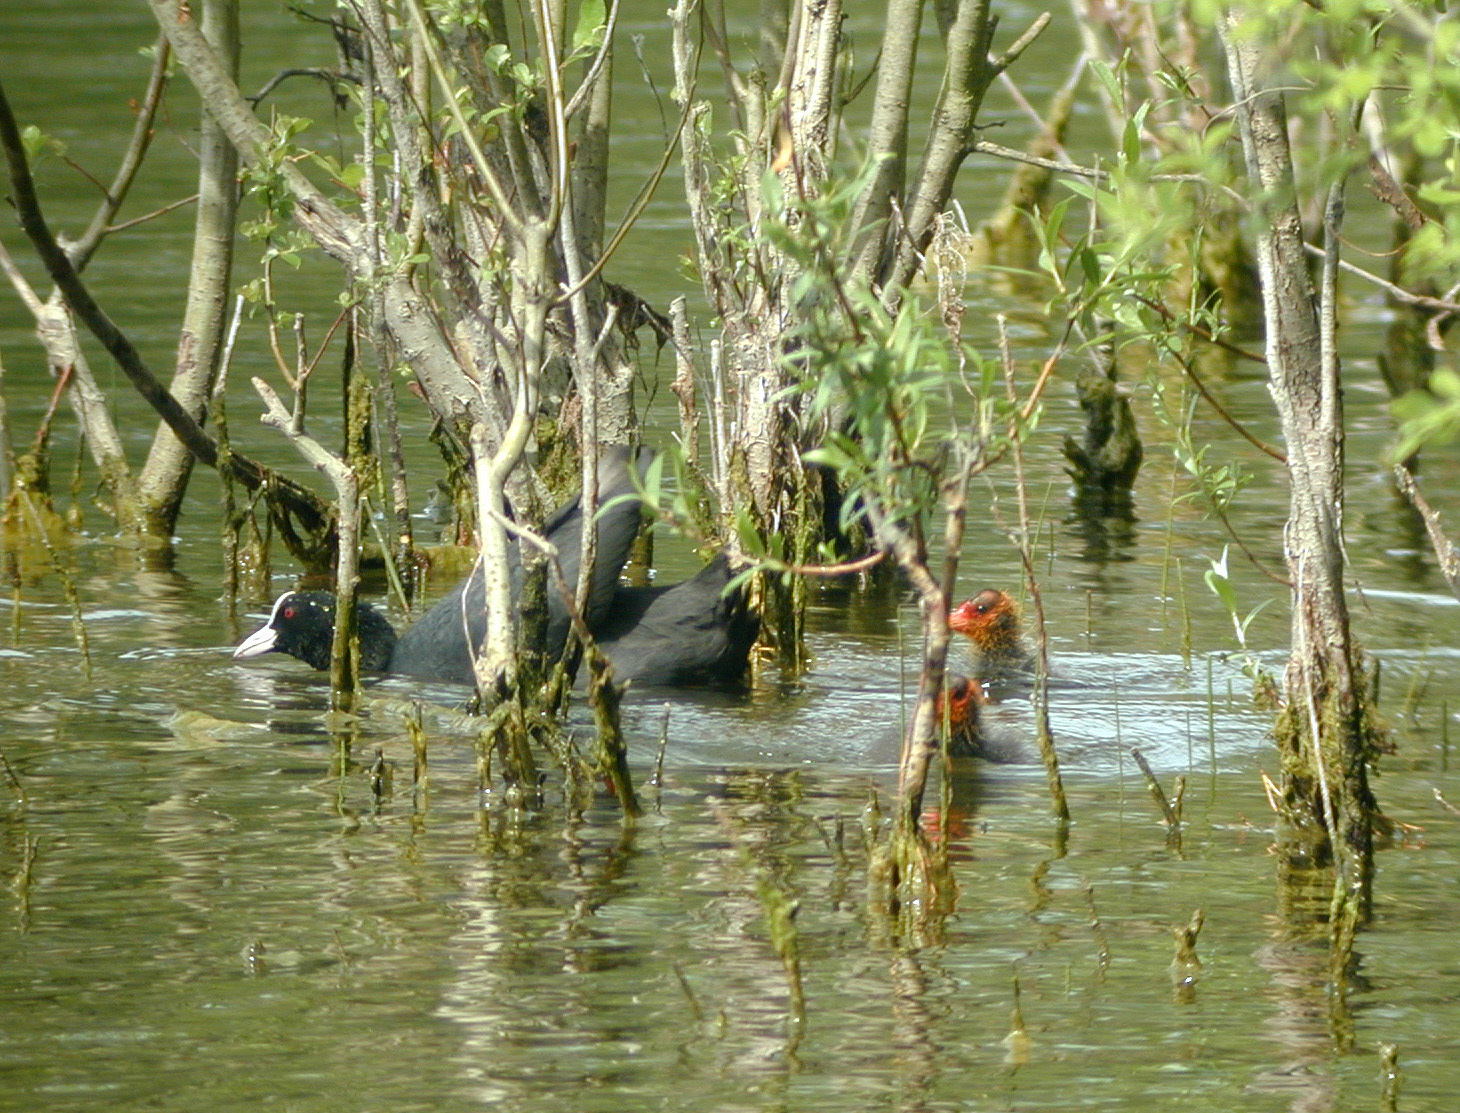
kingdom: Animalia
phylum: Chordata
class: Aves
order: Gruiformes
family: Rallidae
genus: Fulica
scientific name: Fulica atra
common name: Eurasian coot
